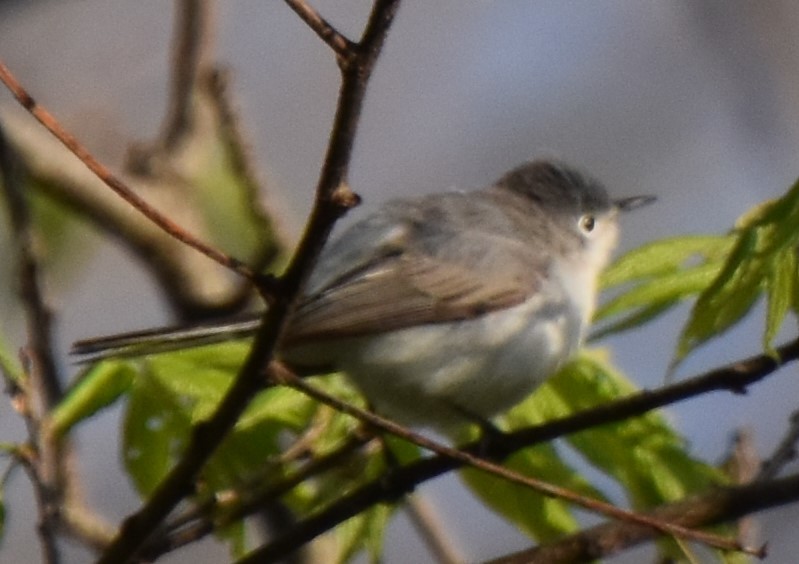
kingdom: Animalia
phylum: Chordata
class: Aves
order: Passeriformes
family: Polioptilidae
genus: Polioptila
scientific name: Polioptila caerulea
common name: Blue-gray gnatcatcher
